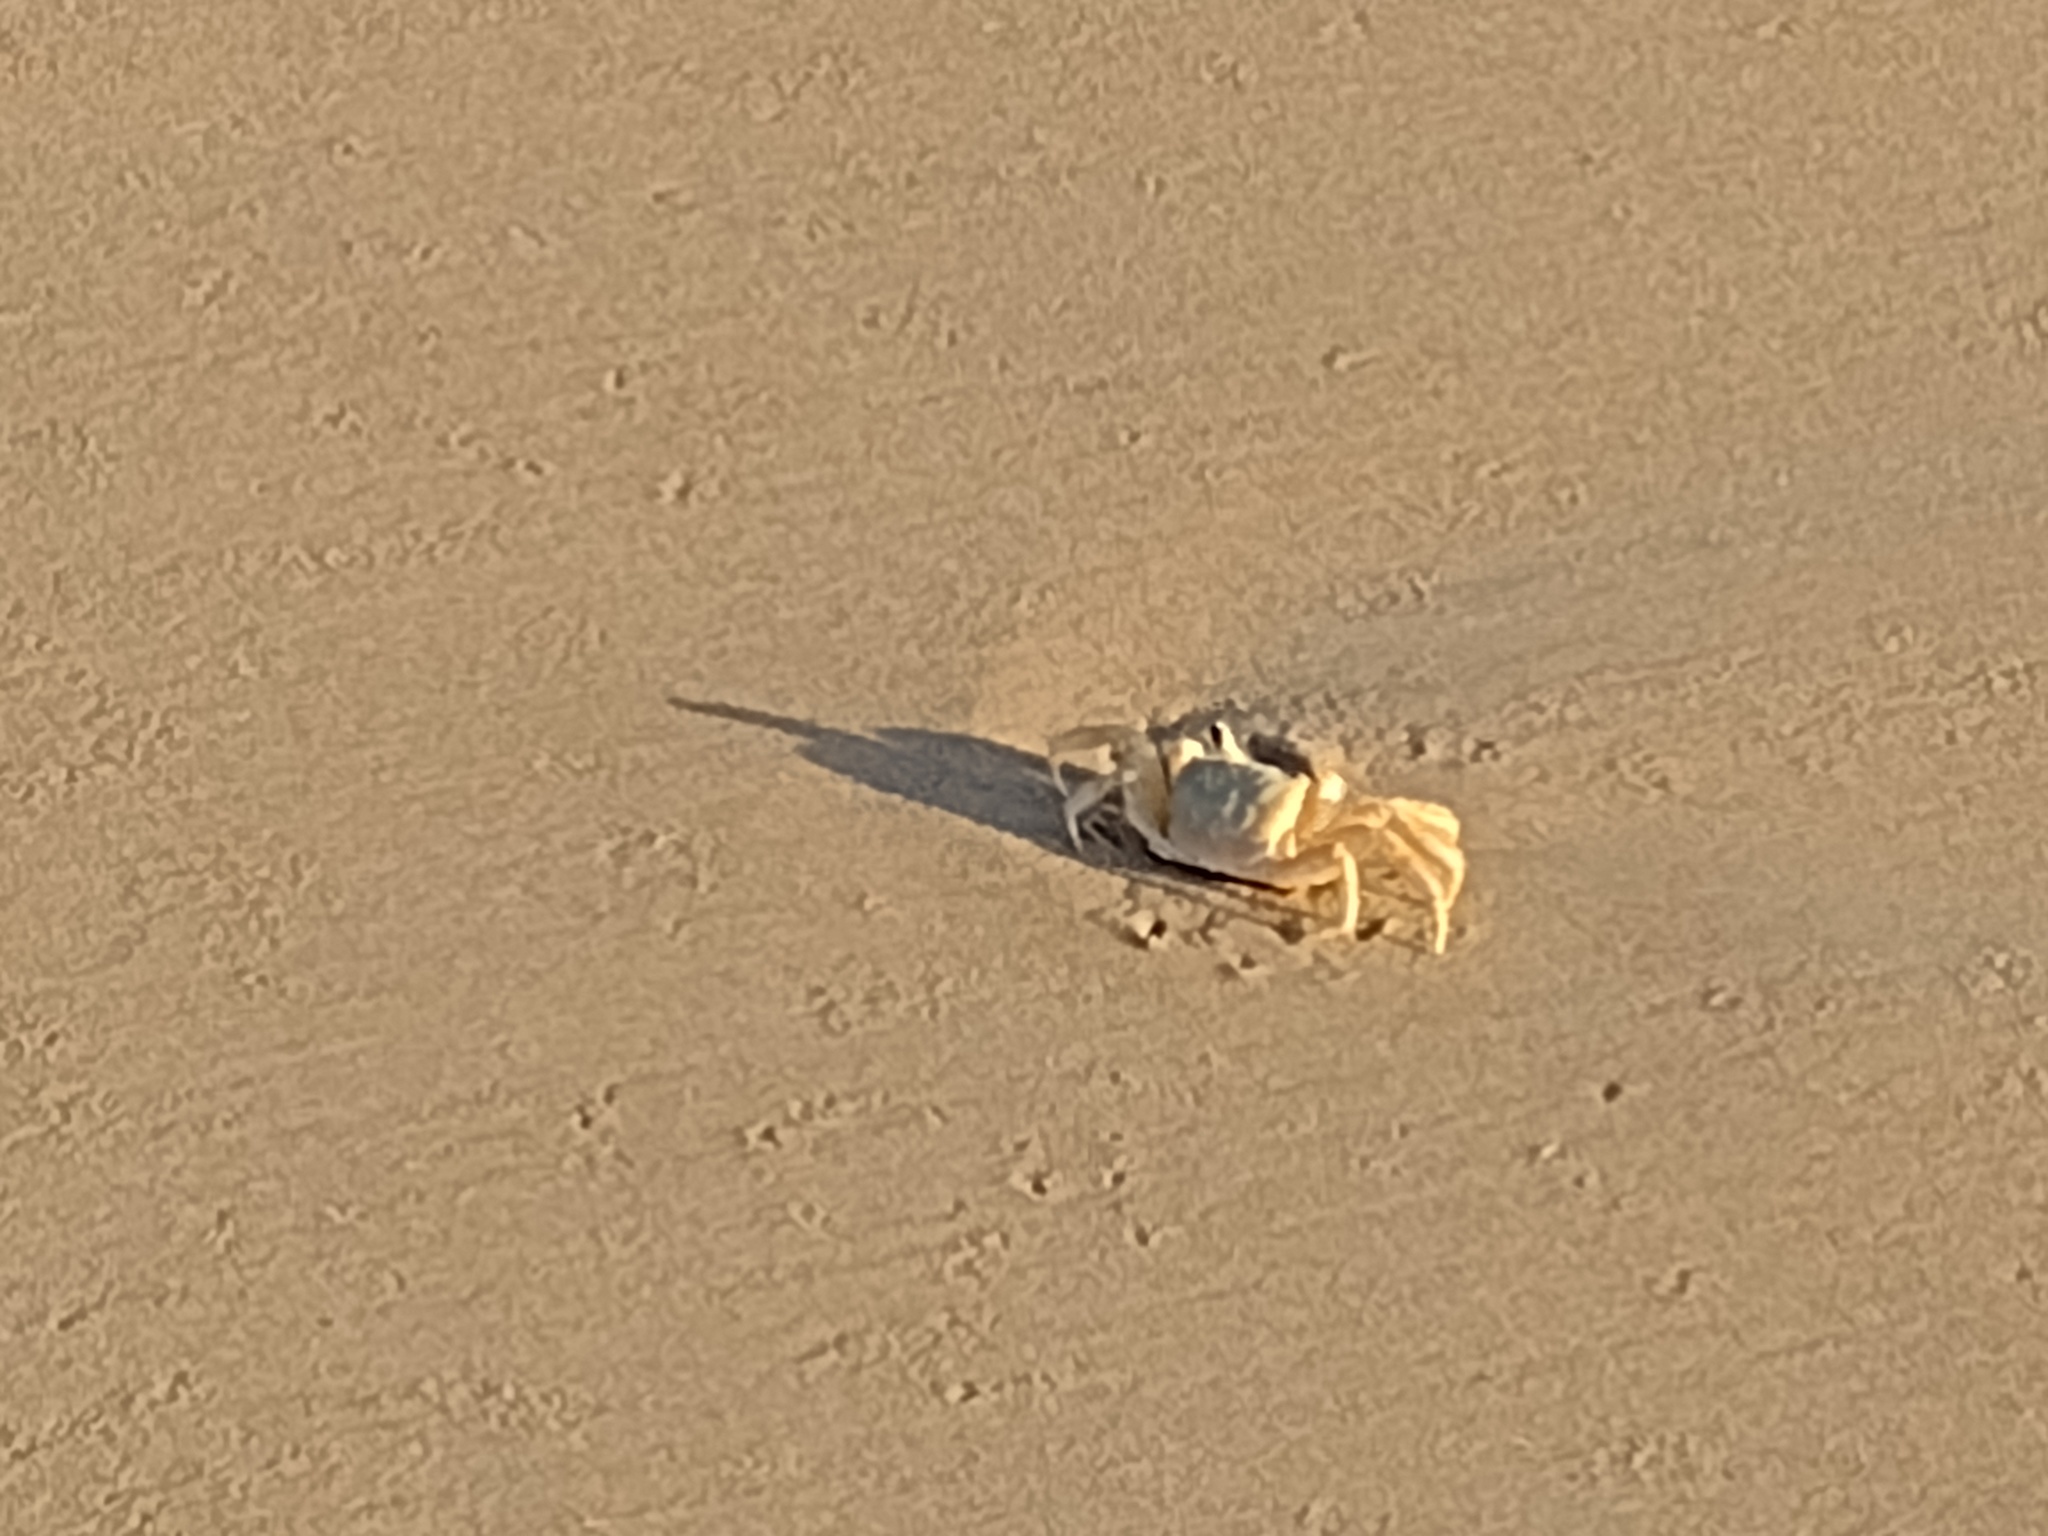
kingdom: Animalia
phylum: Arthropoda
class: Malacostraca
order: Decapoda
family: Ocypodidae
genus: Ocypode
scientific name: Ocypode quadrata
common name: Ghost crab
